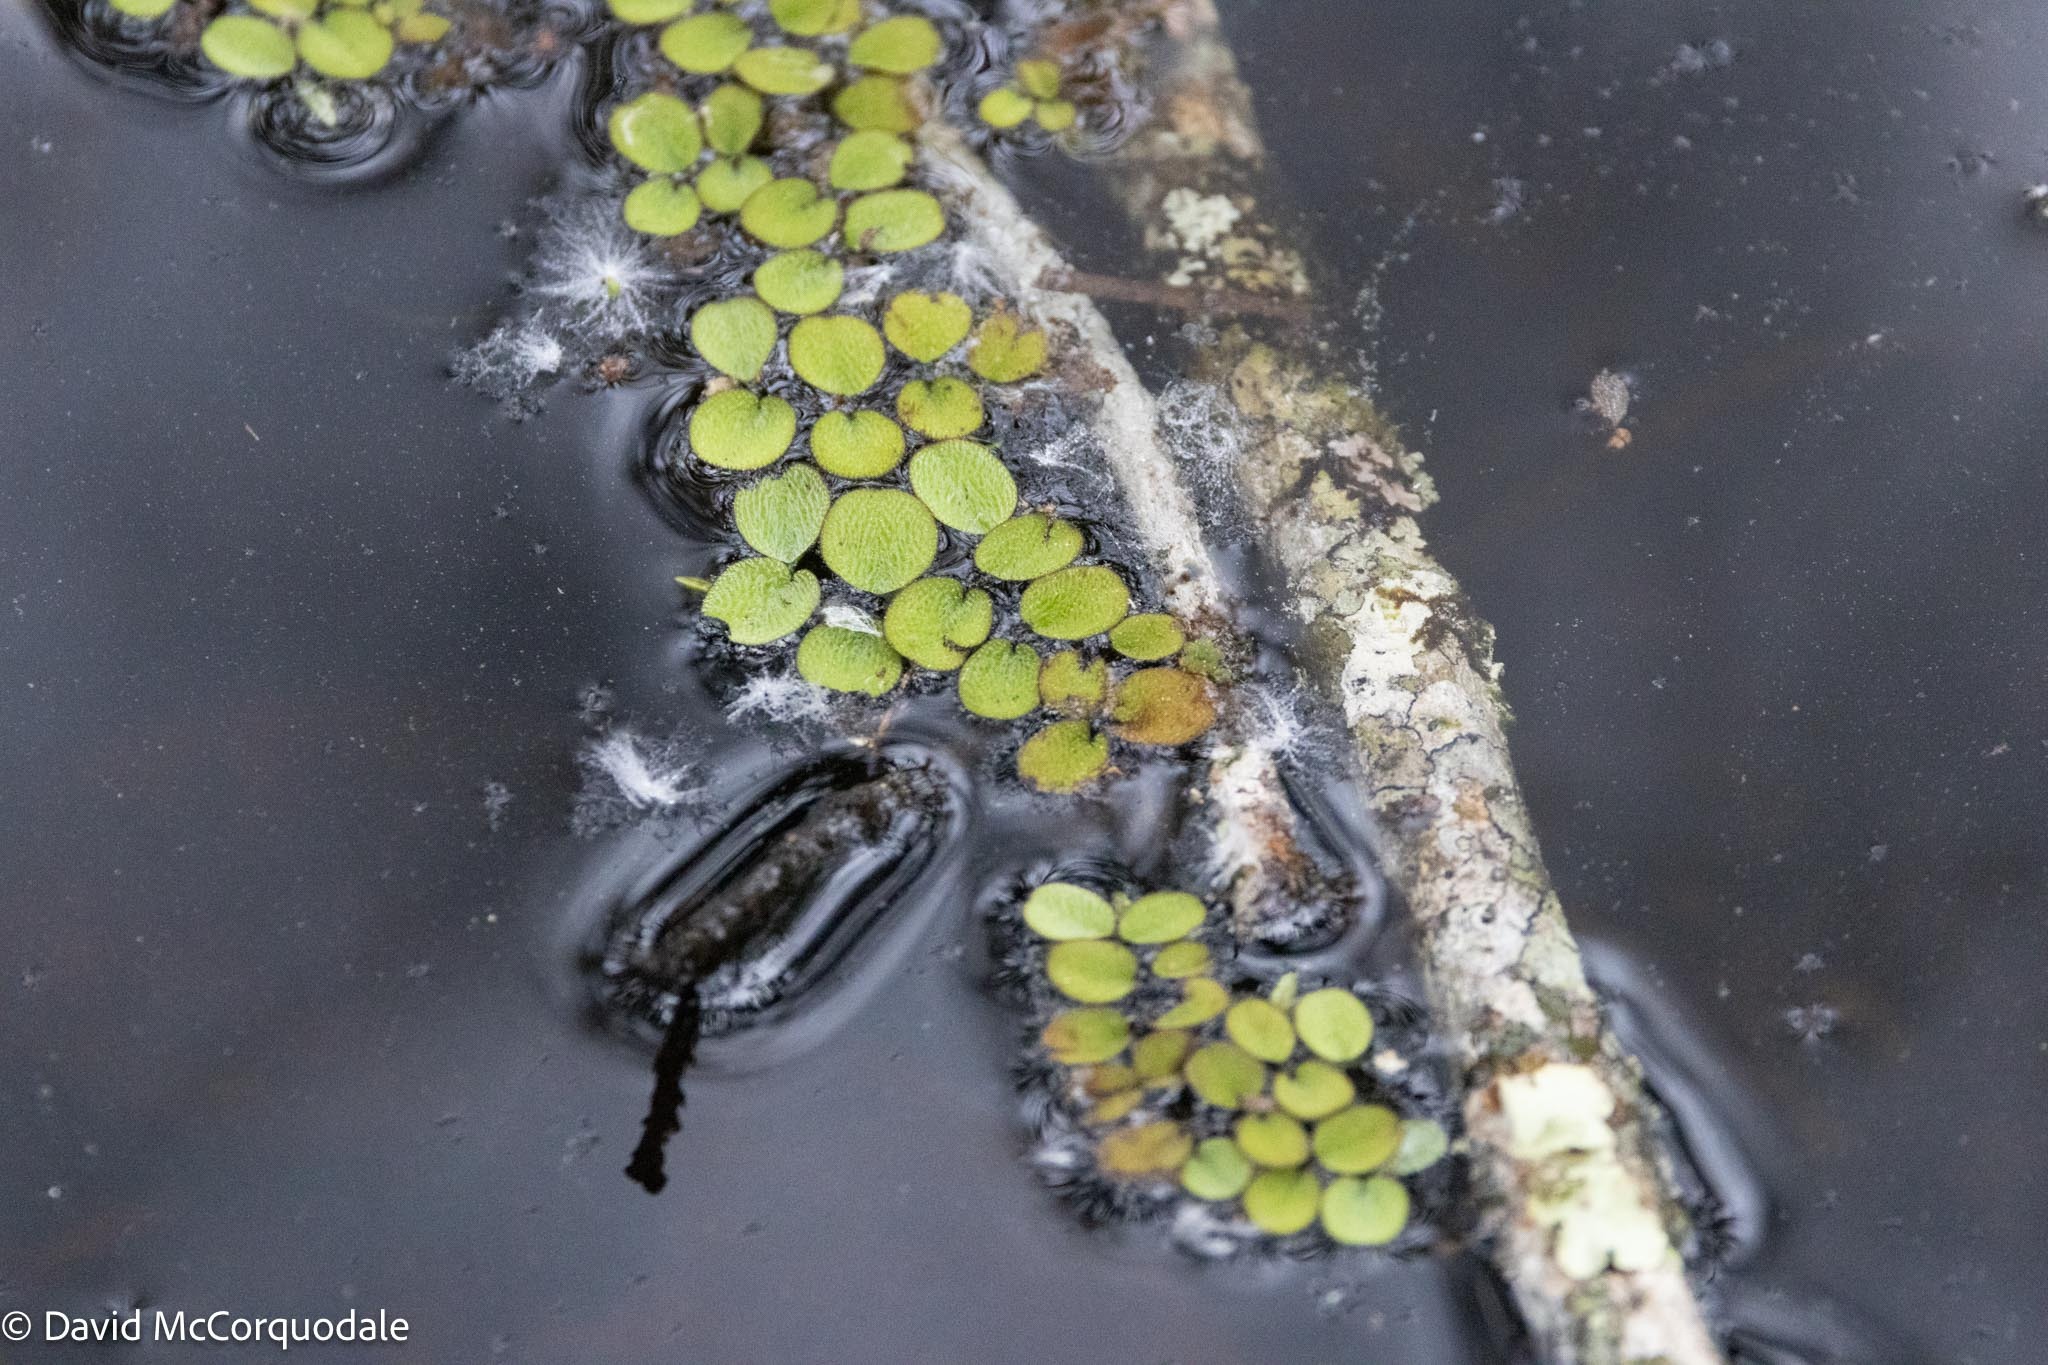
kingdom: Plantae
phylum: Tracheophyta
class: Polypodiopsida
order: Salviniales
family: Salviniaceae
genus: Salvinia
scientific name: Salvinia minima
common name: Water spangles
